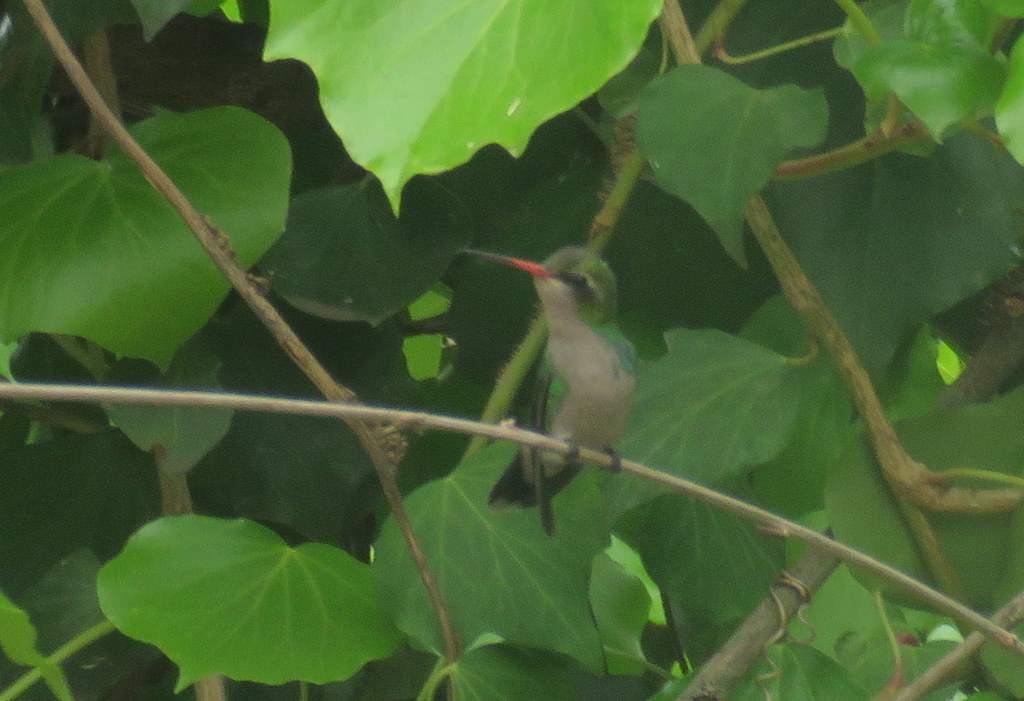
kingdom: Animalia
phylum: Chordata
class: Aves
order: Apodiformes
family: Trochilidae
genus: Chlorostilbon
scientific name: Chlorostilbon lucidus
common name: Glittering-bellied emerald
